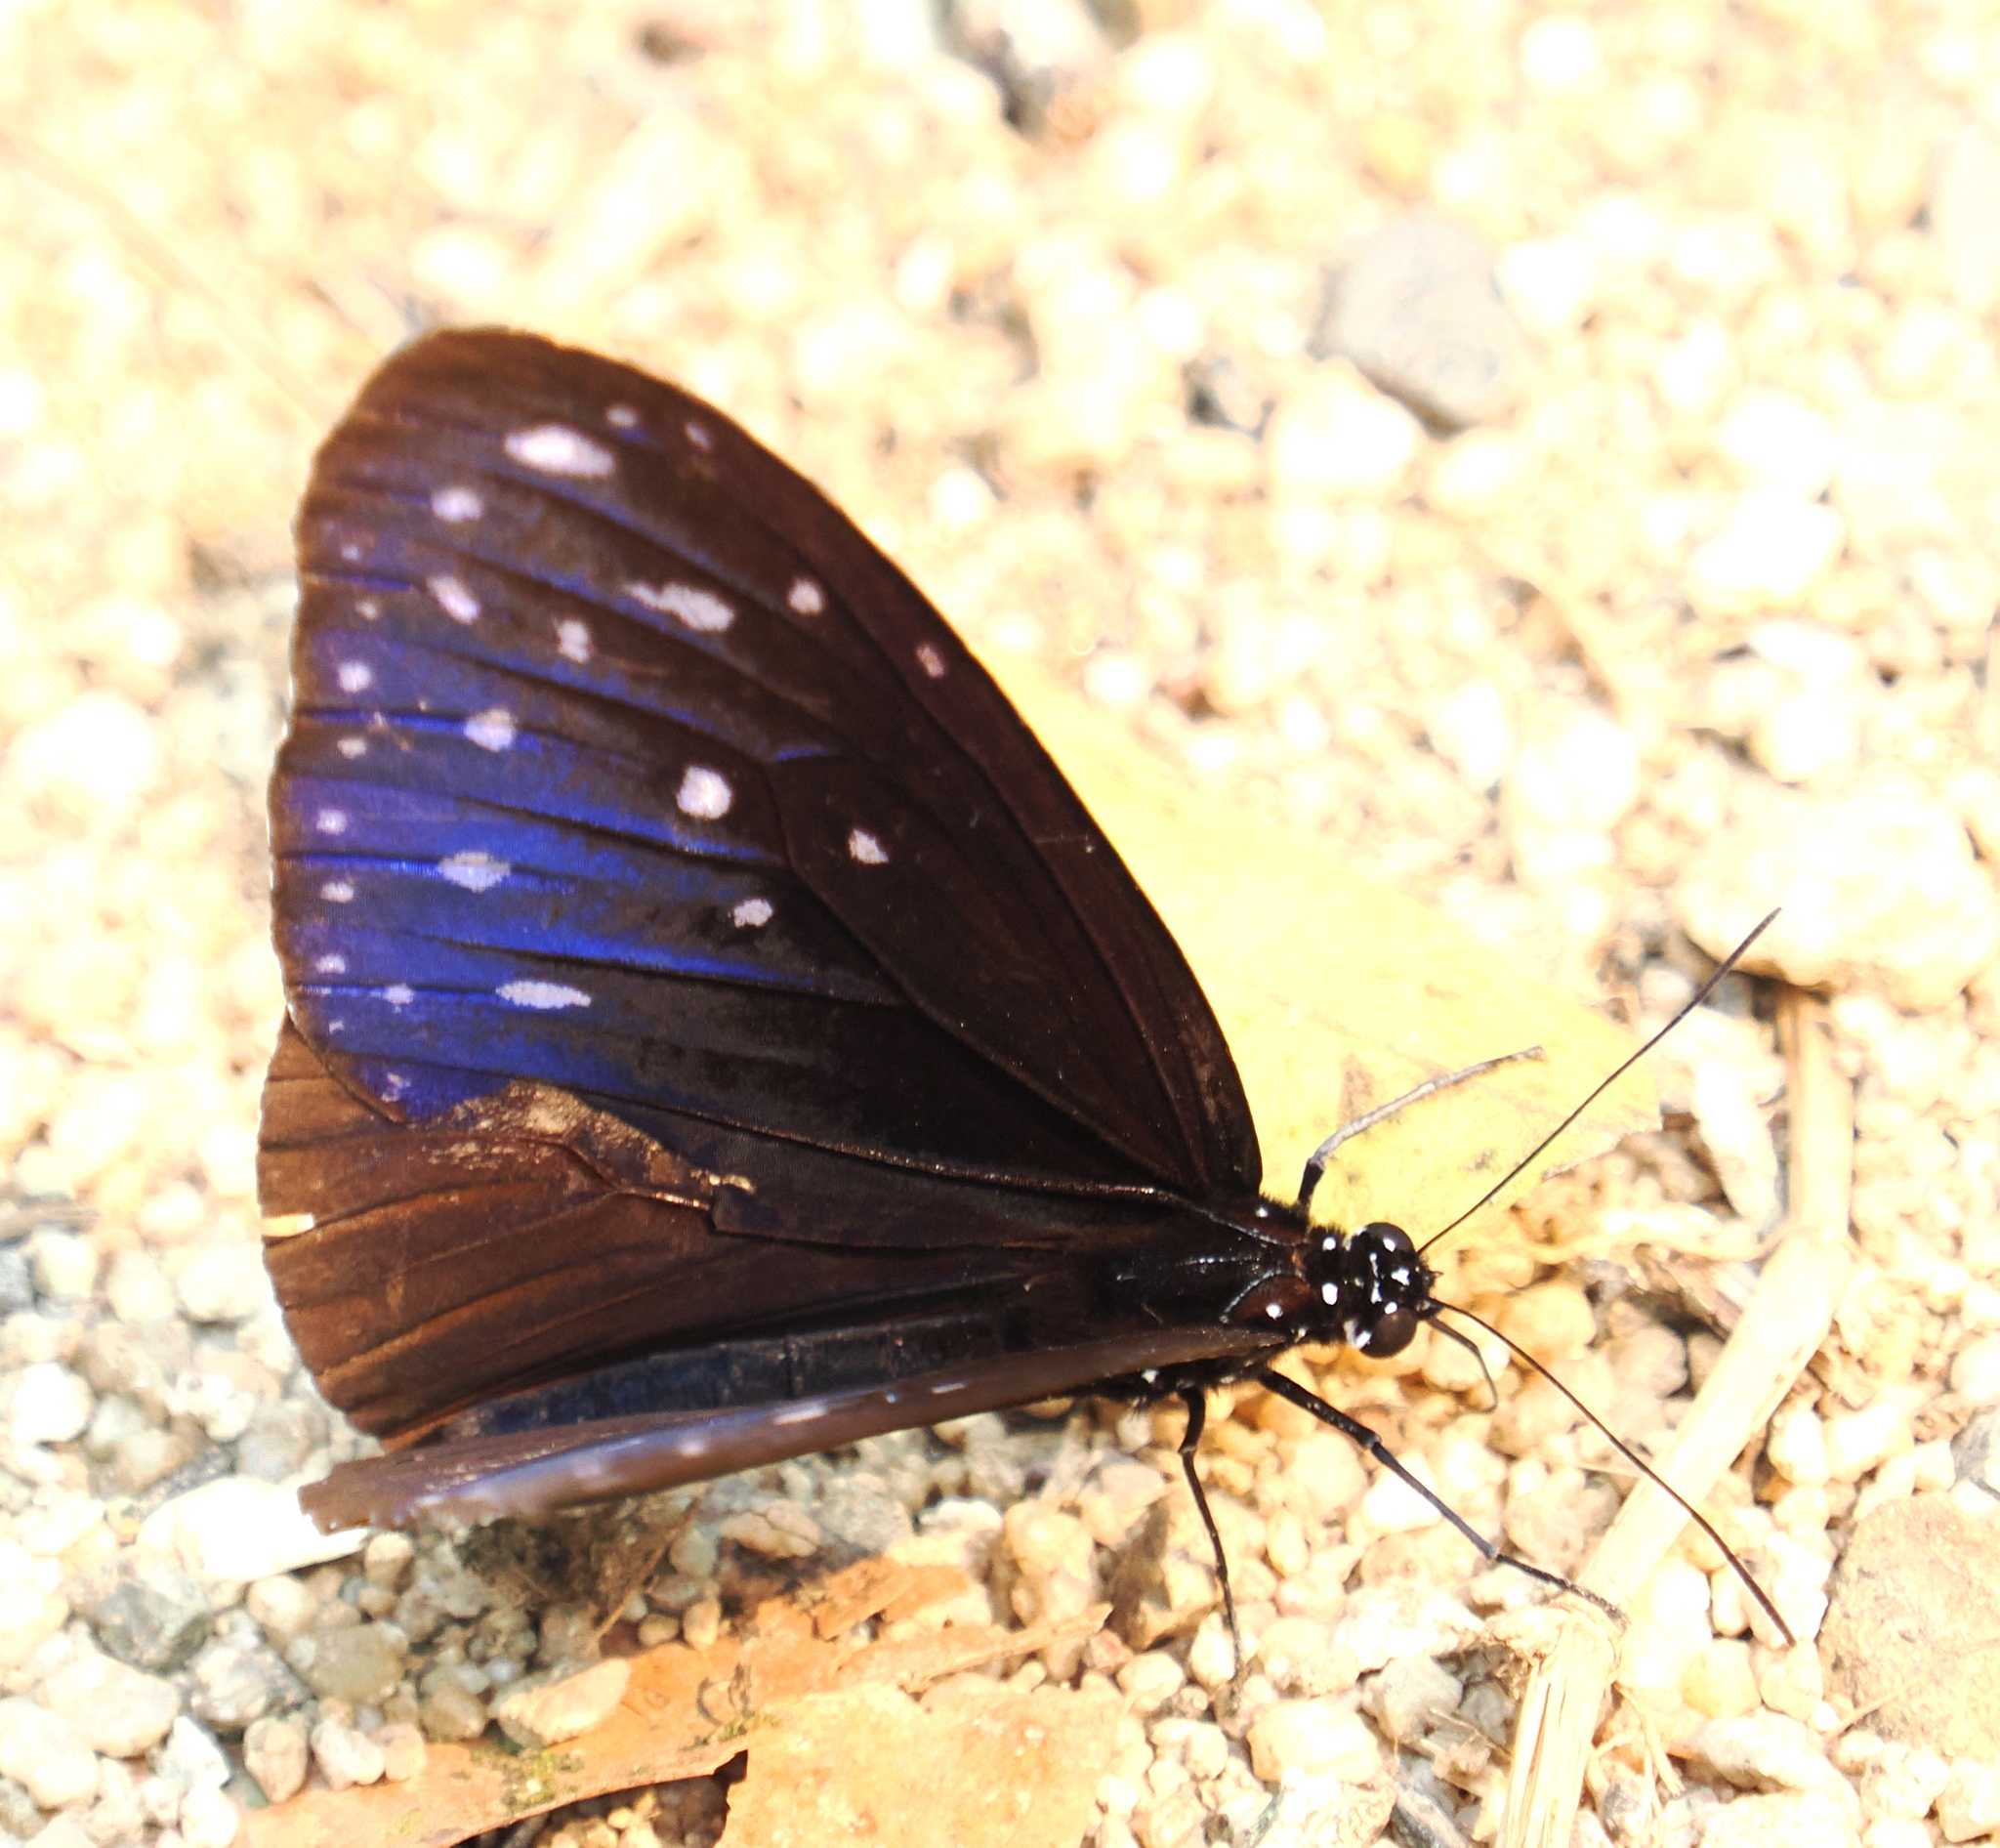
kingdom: Animalia
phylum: Arthropoda
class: Insecta
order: Lepidoptera
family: Nymphalidae
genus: Euploea
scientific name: Euploea mulciber
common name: Striped blue crow butterfly
